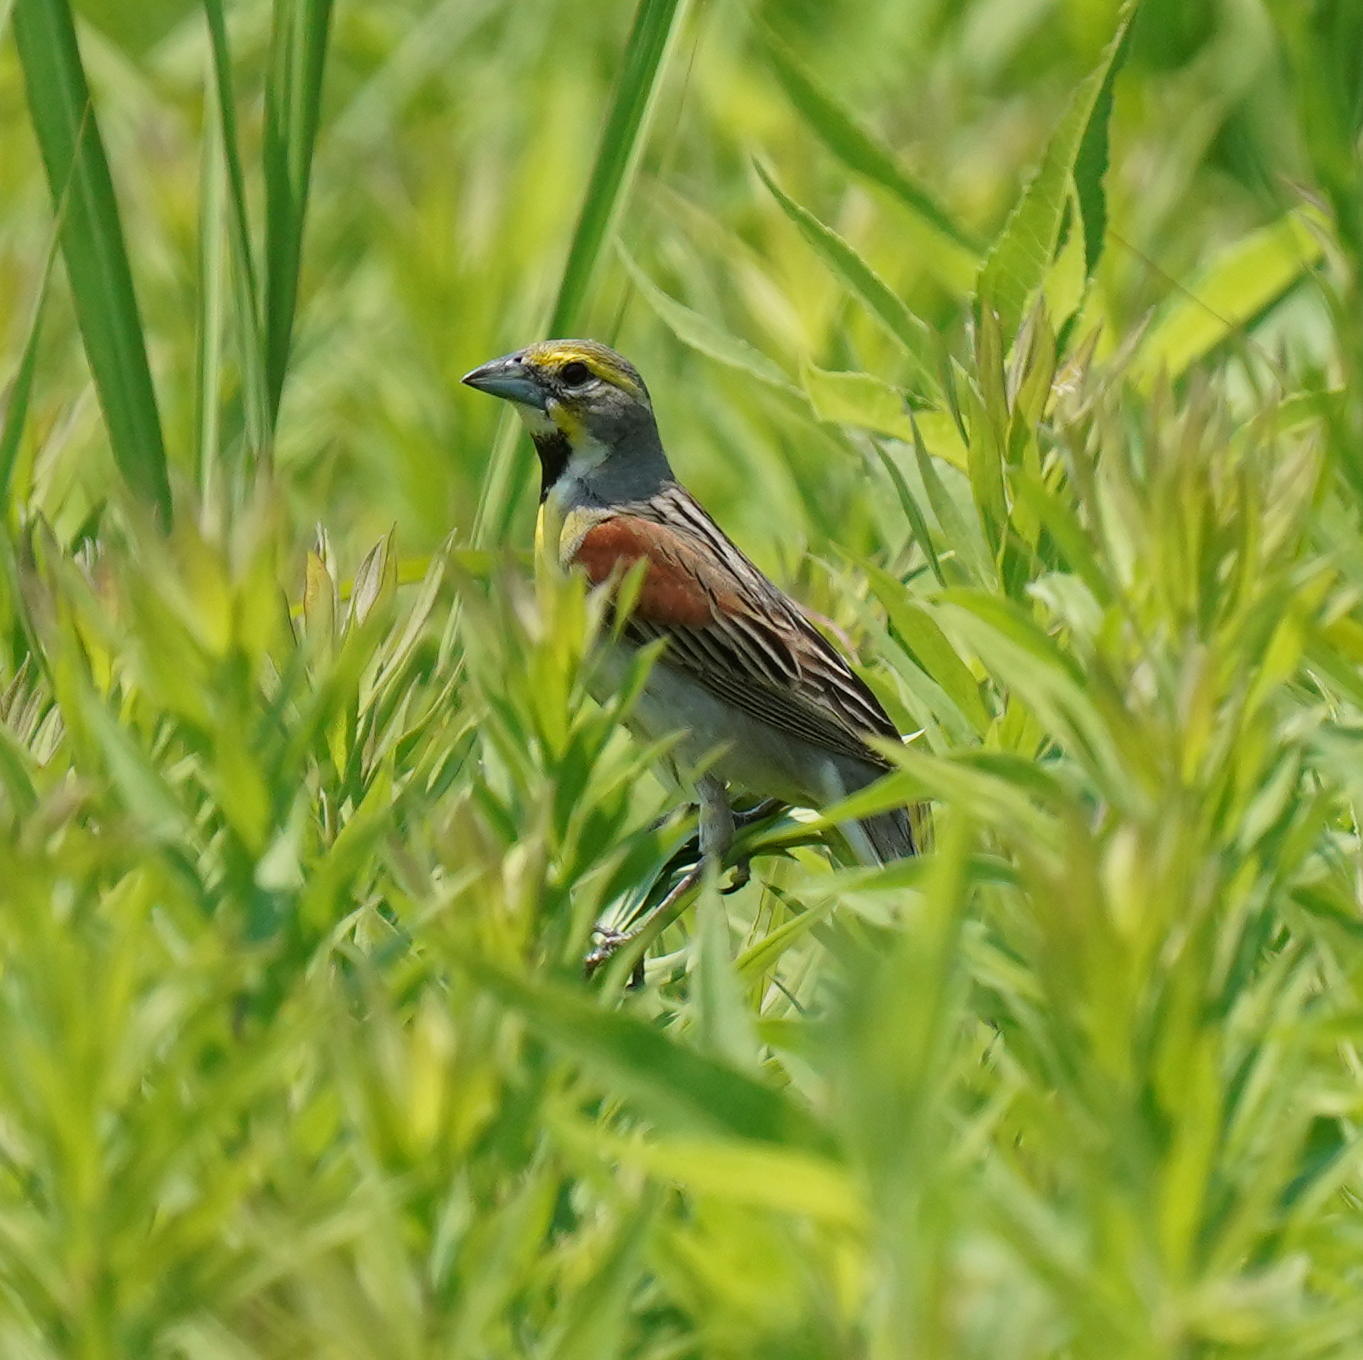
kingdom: Animalia
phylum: Chordata
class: Aves
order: Passeriformes
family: Cardinalidae
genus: Spiza
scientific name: Spiza americana
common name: Dickcissel
